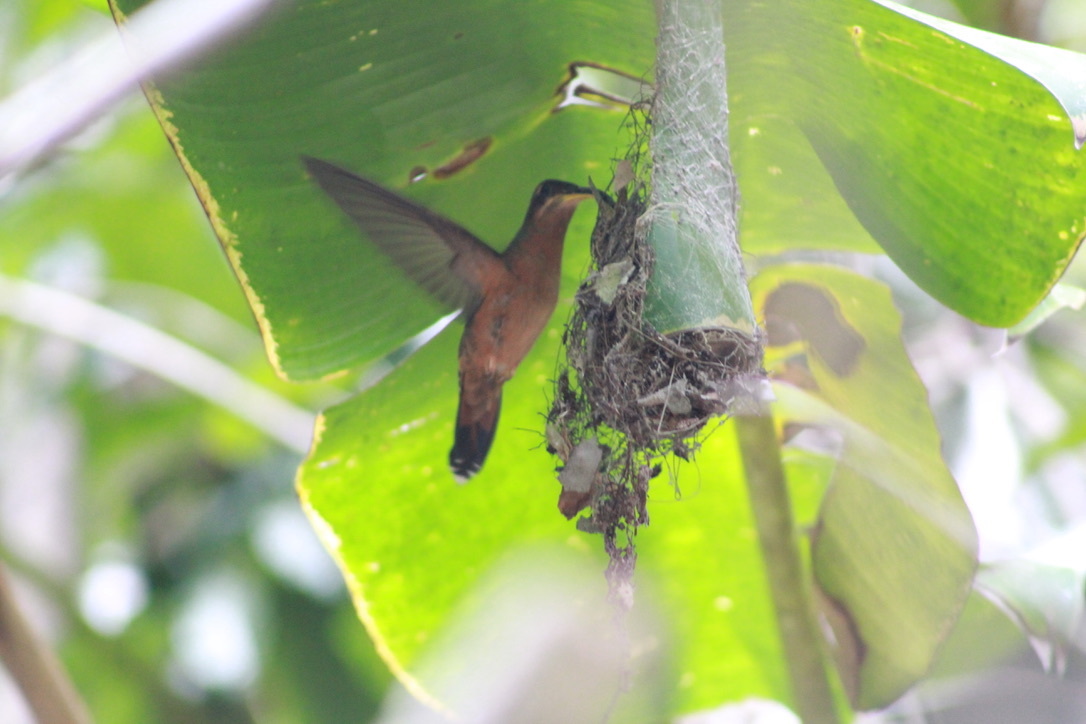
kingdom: Animalia
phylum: Chordata
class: Aves
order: Apodiformes
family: Trochilidae
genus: Glaucis
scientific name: Glaucis hirsutus
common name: Rufous-breasted hermit
